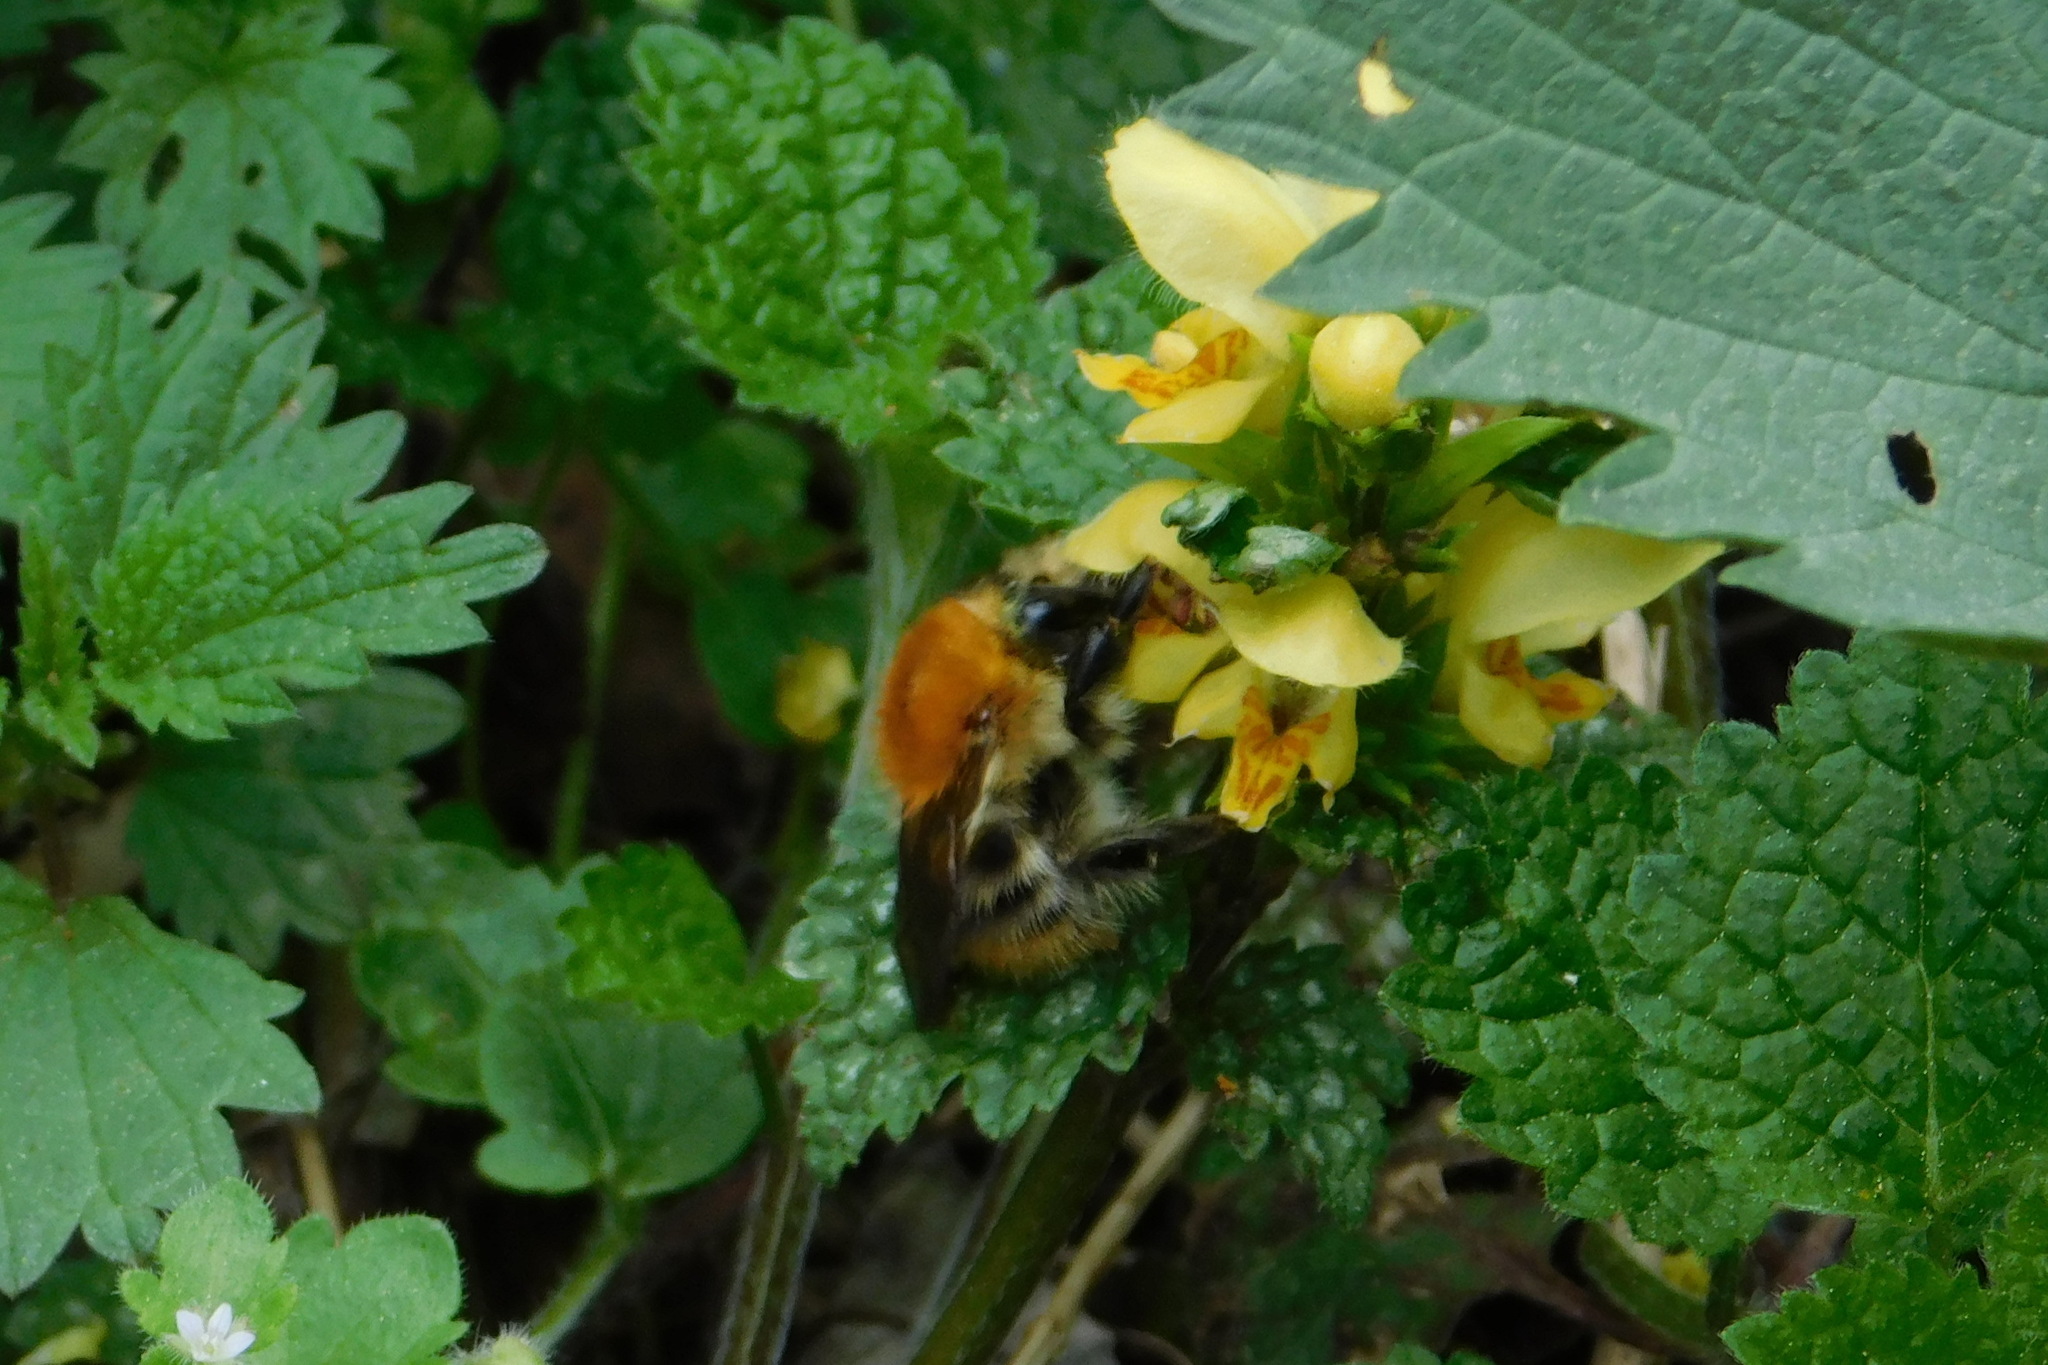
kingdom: Animalia
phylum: Arthropoda
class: Insecta
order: Hymenoptera
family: Apidae
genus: Bombus
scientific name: Bombus pascuorum
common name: Common carder bee
